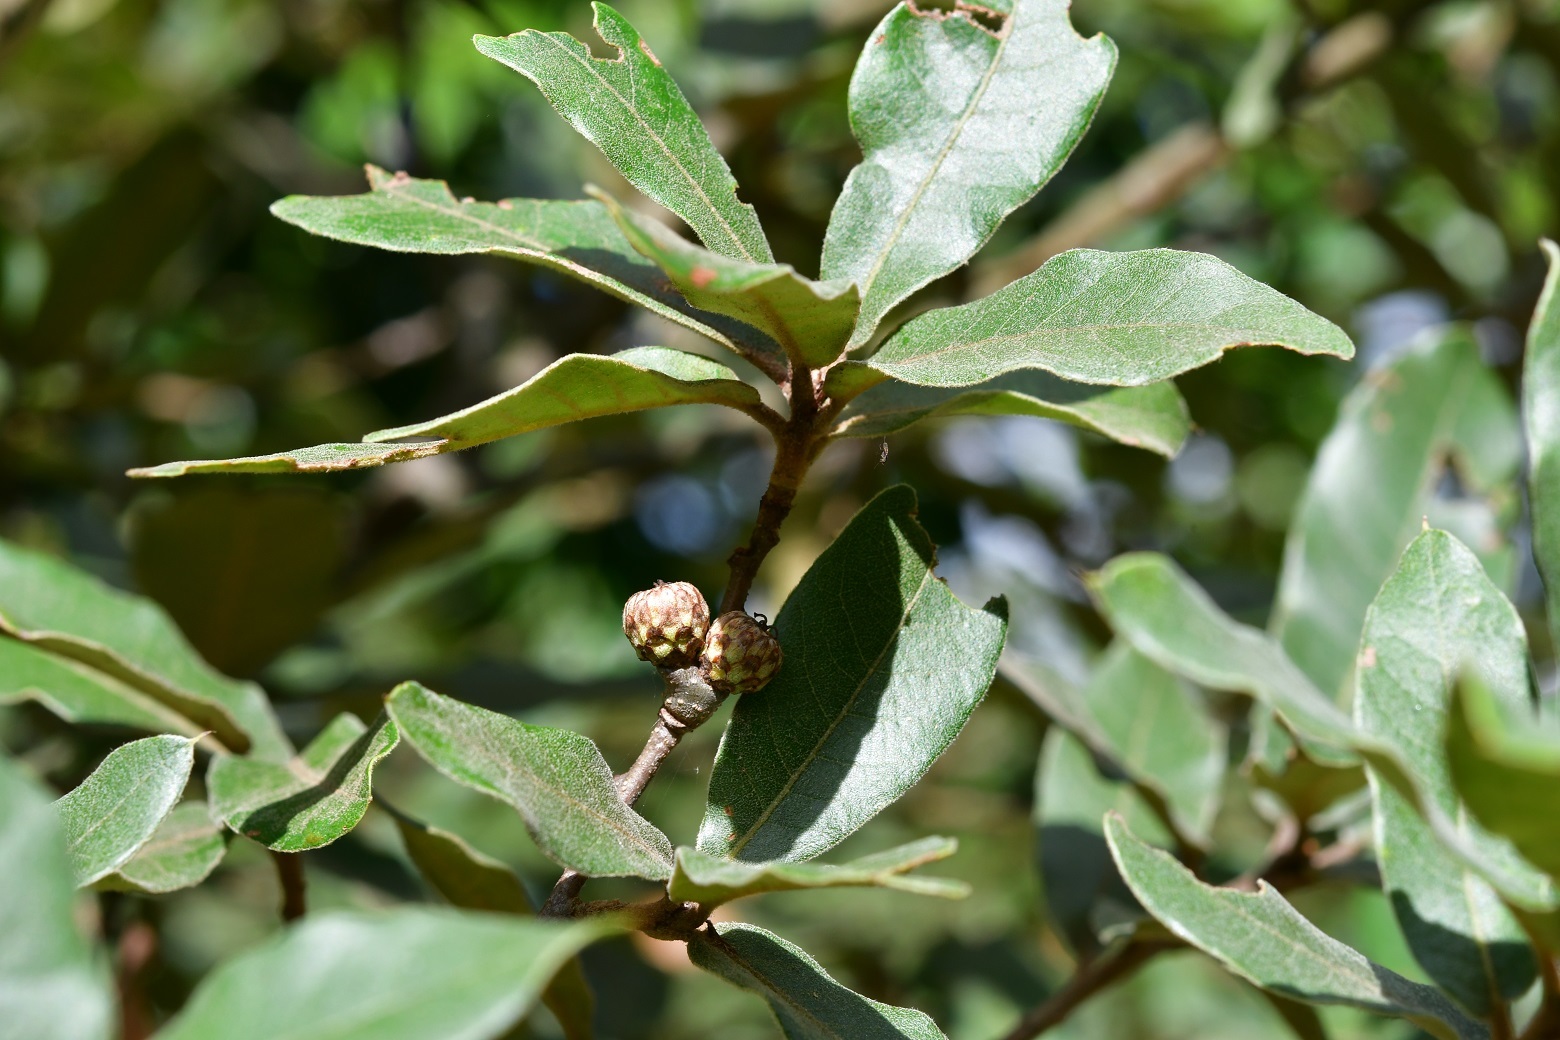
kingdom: Plantae
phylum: Tracheophyta
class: Magnoliopsida
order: Fagales
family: Fagaceae
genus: Quercus
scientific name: Quercus crispipilis
